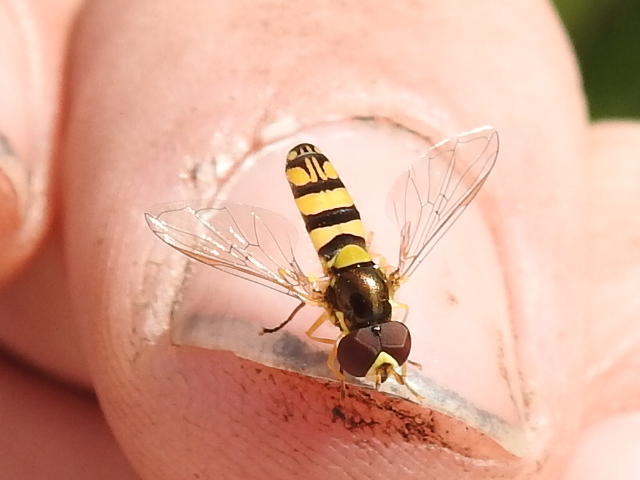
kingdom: Animalia
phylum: Arthropoda
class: Insecta
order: Diptera
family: Syrphidae
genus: Allograpta
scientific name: Allograpta obliqua
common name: Common oblique syrphid
